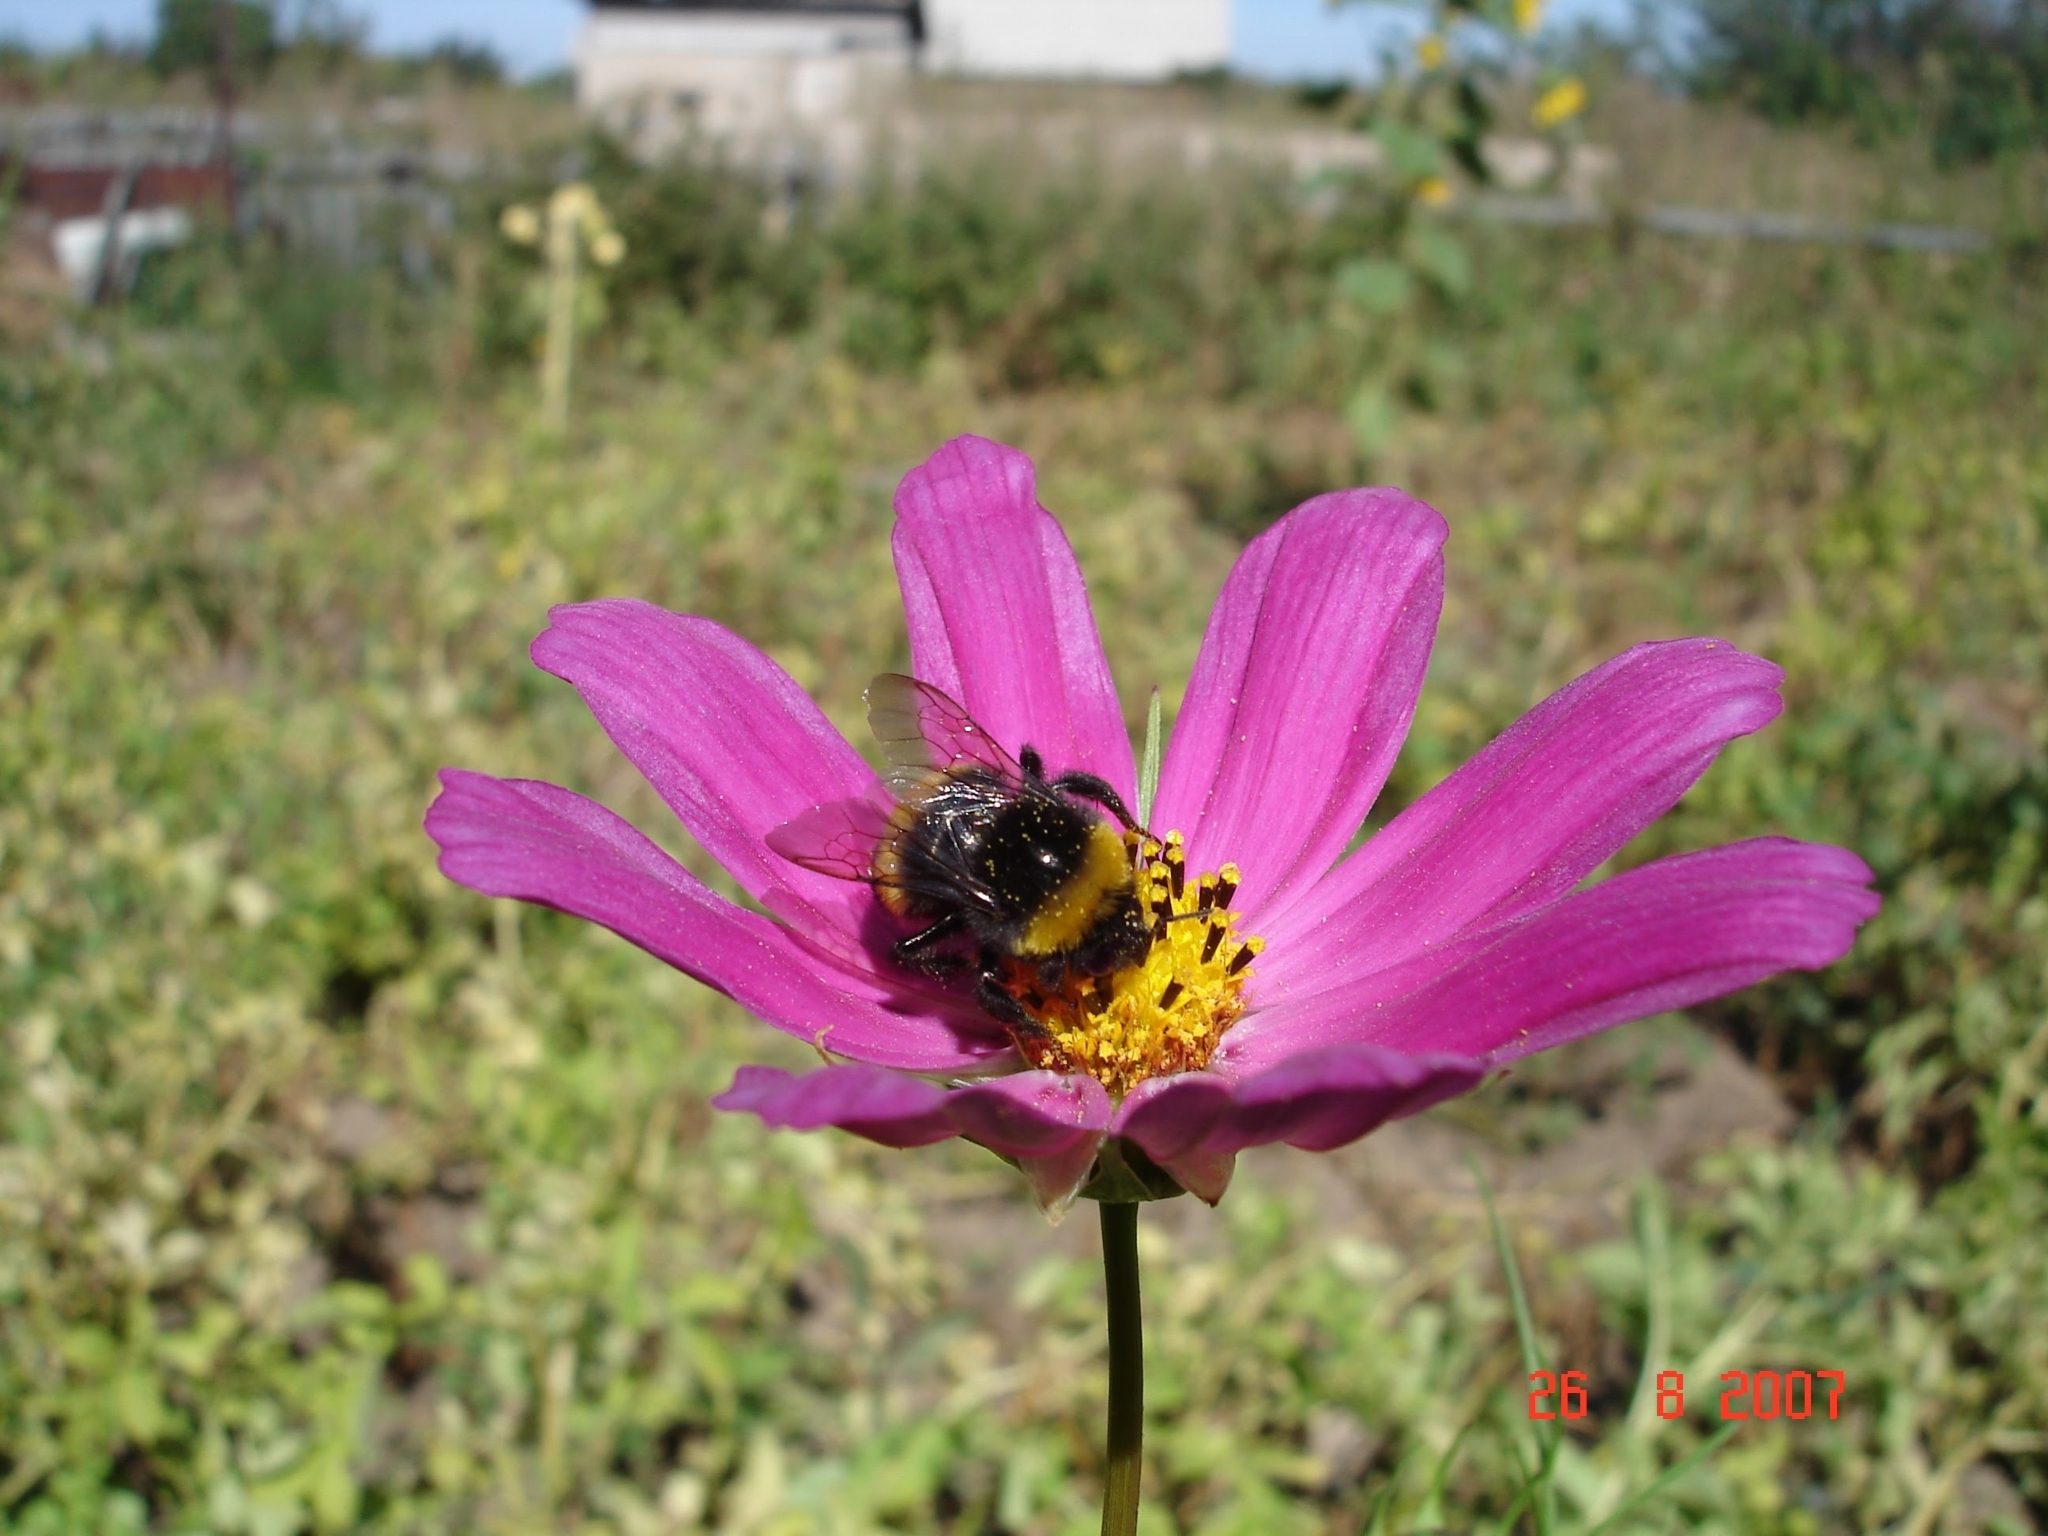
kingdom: Animalia
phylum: Arthropoda
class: Insecta
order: Hymenoptera
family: Apidae
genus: Bombus
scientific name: Bombus
